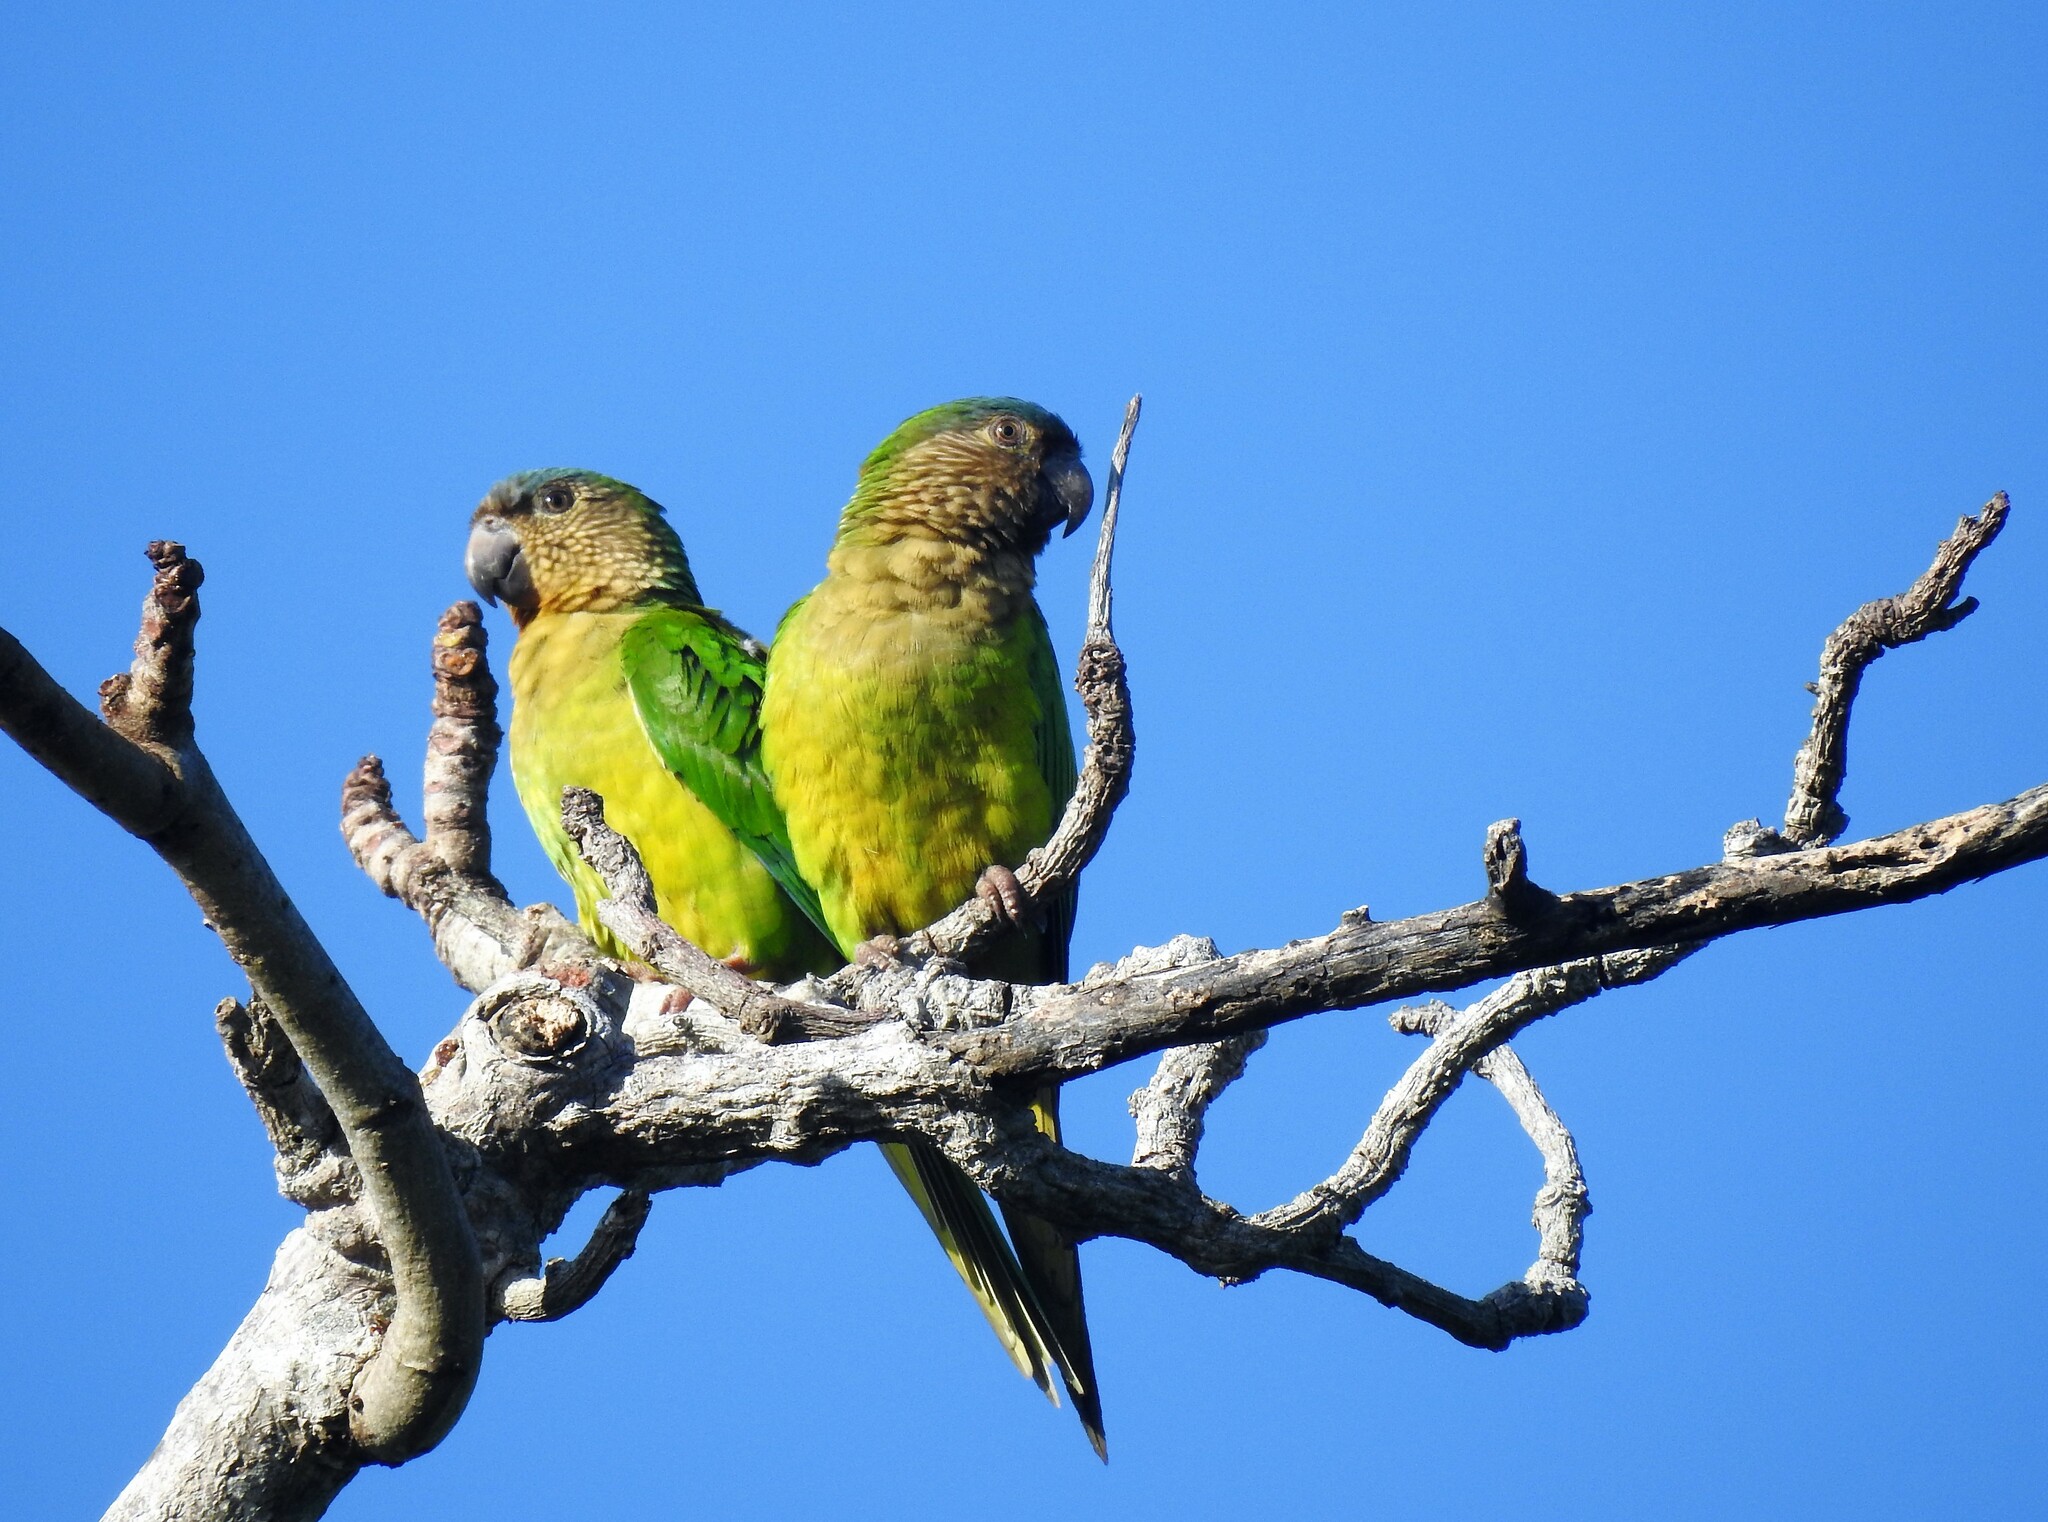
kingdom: Animalia
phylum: Chordata
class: Aves
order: Psittaciformes
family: Psittacidae
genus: Aratinga
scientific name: Aratinga pertinax
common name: Brown-throated parakeet
